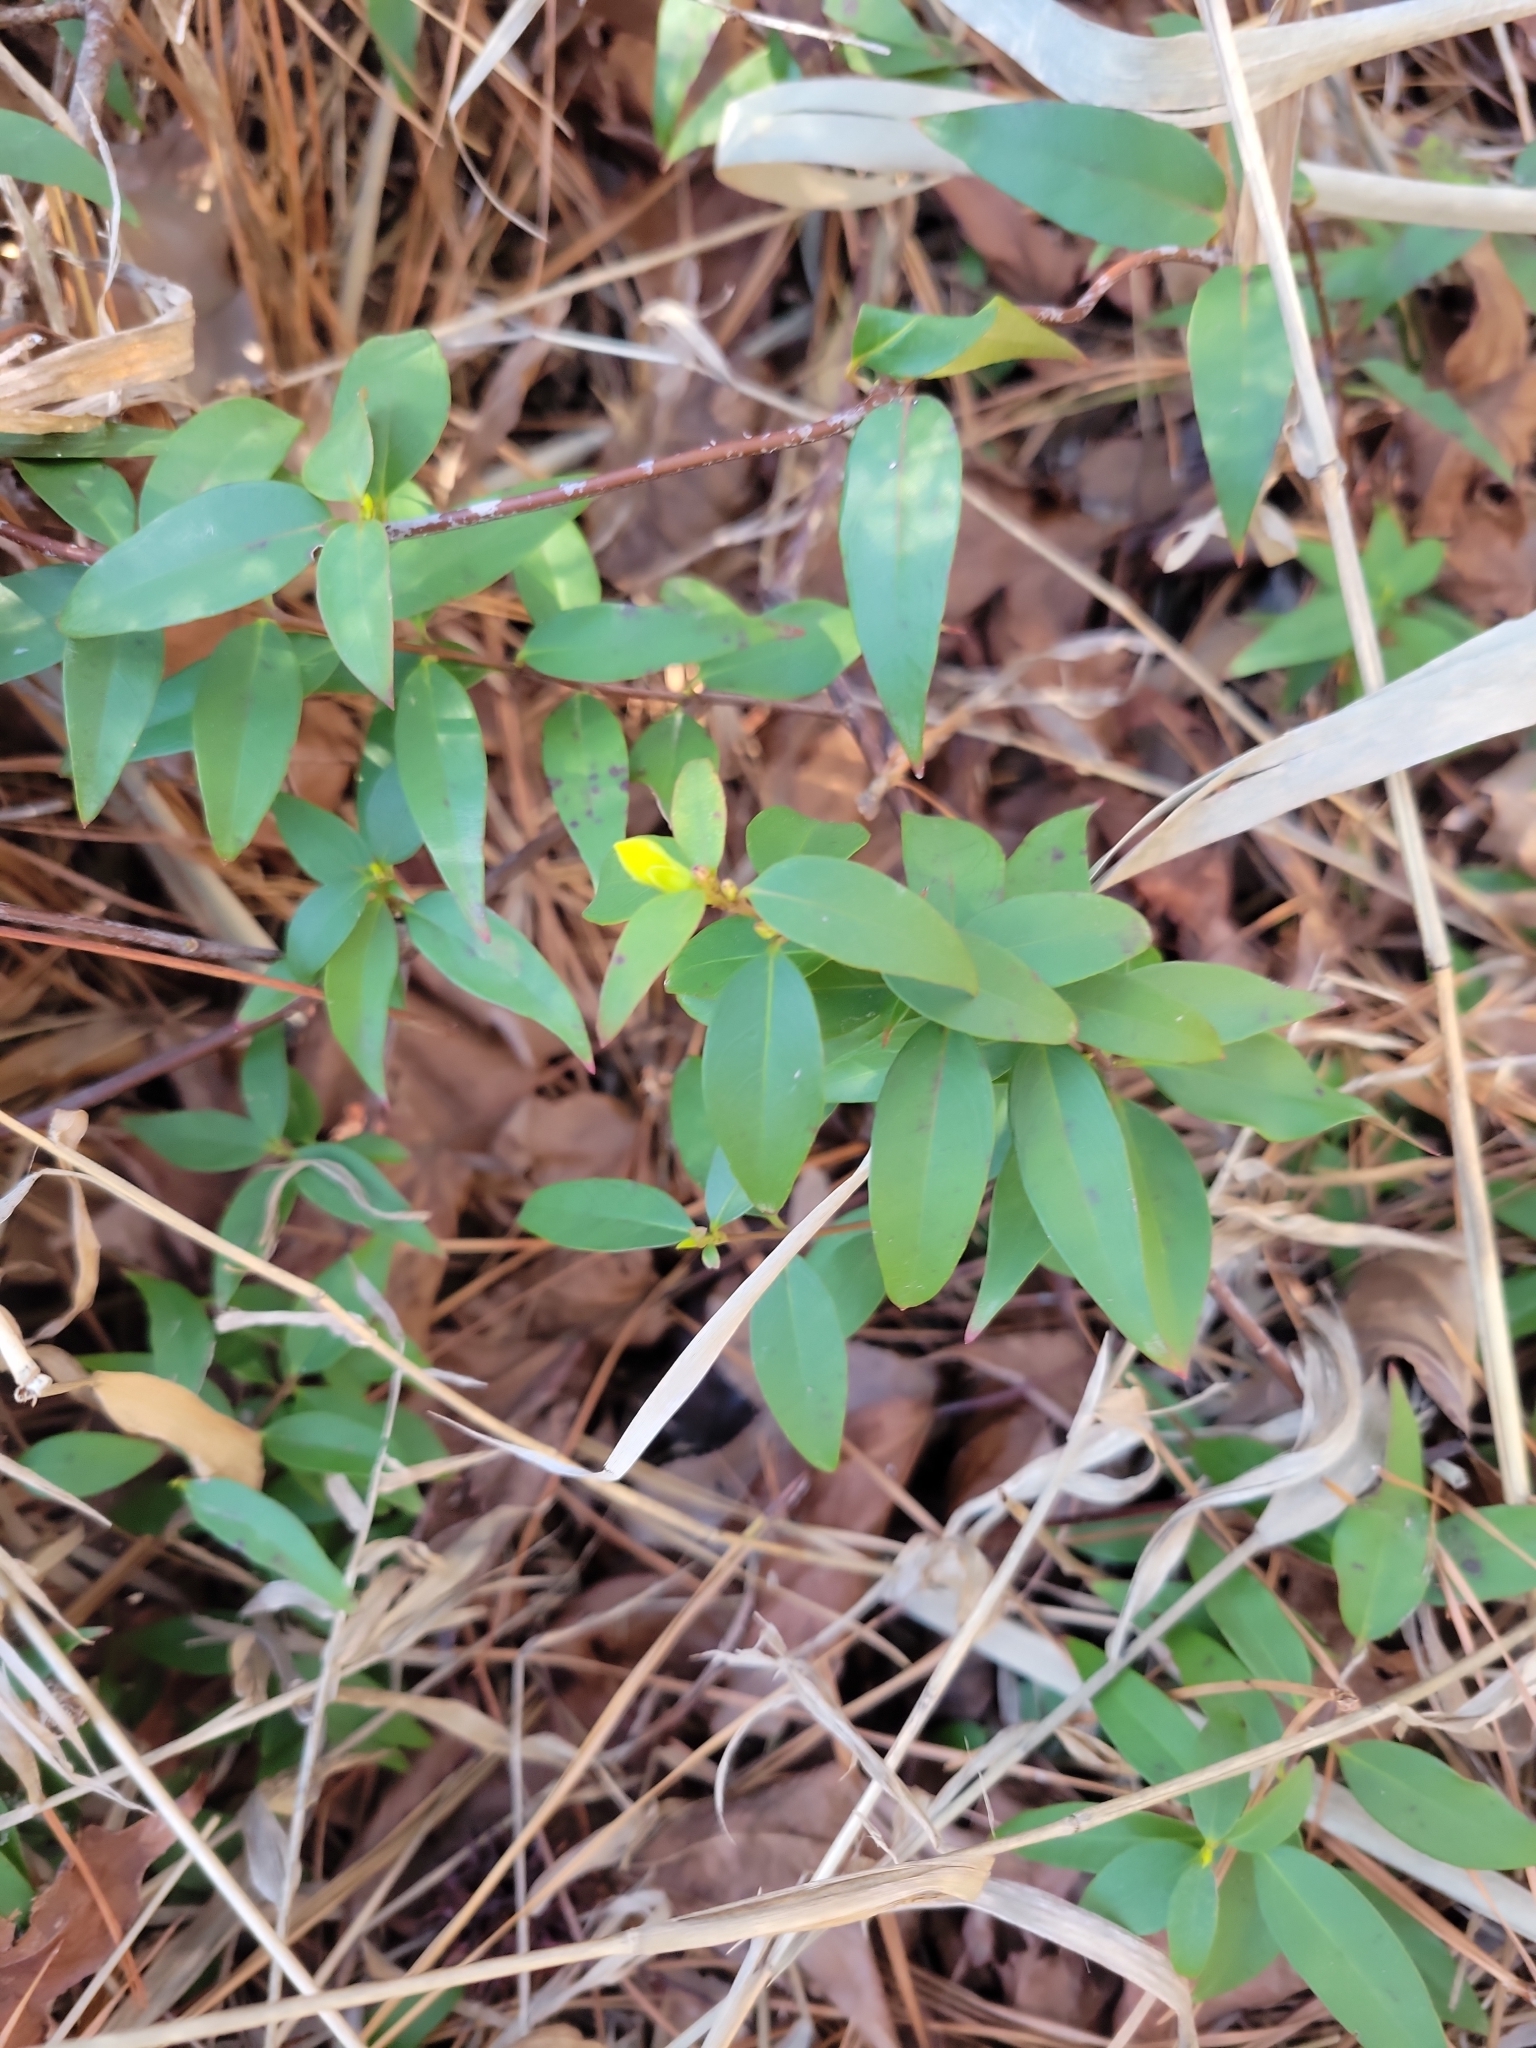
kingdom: Plantae
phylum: Tracheophyta
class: Magnoliopsida
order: Gentianales
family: Gelsemiaceae
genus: Gelsemium
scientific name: Gelsemium sempervirens
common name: Carolina-jasmine
